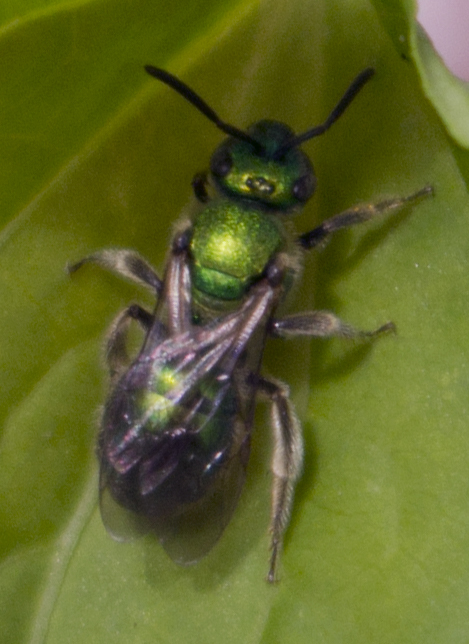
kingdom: Animalia
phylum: Arthropoda
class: Insecta
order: Hymenoptera
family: Halictidae
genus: Augochlora
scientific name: Augochlora pura
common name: Pure green sweat bee
